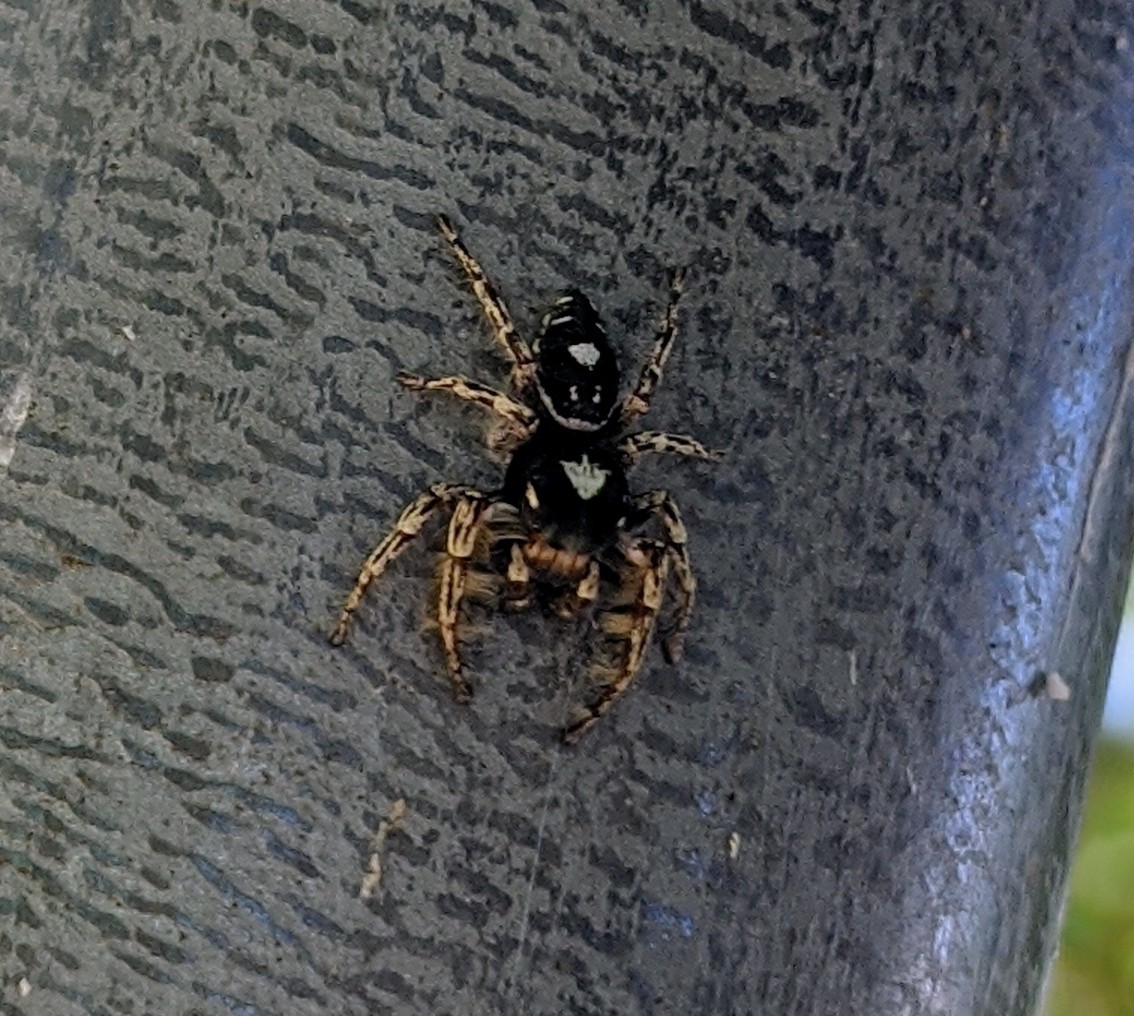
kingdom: Animalia
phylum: Arthropoda
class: Arachnida
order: Araneae
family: Salticidae
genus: Phidippus
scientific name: Phidippus putnami
